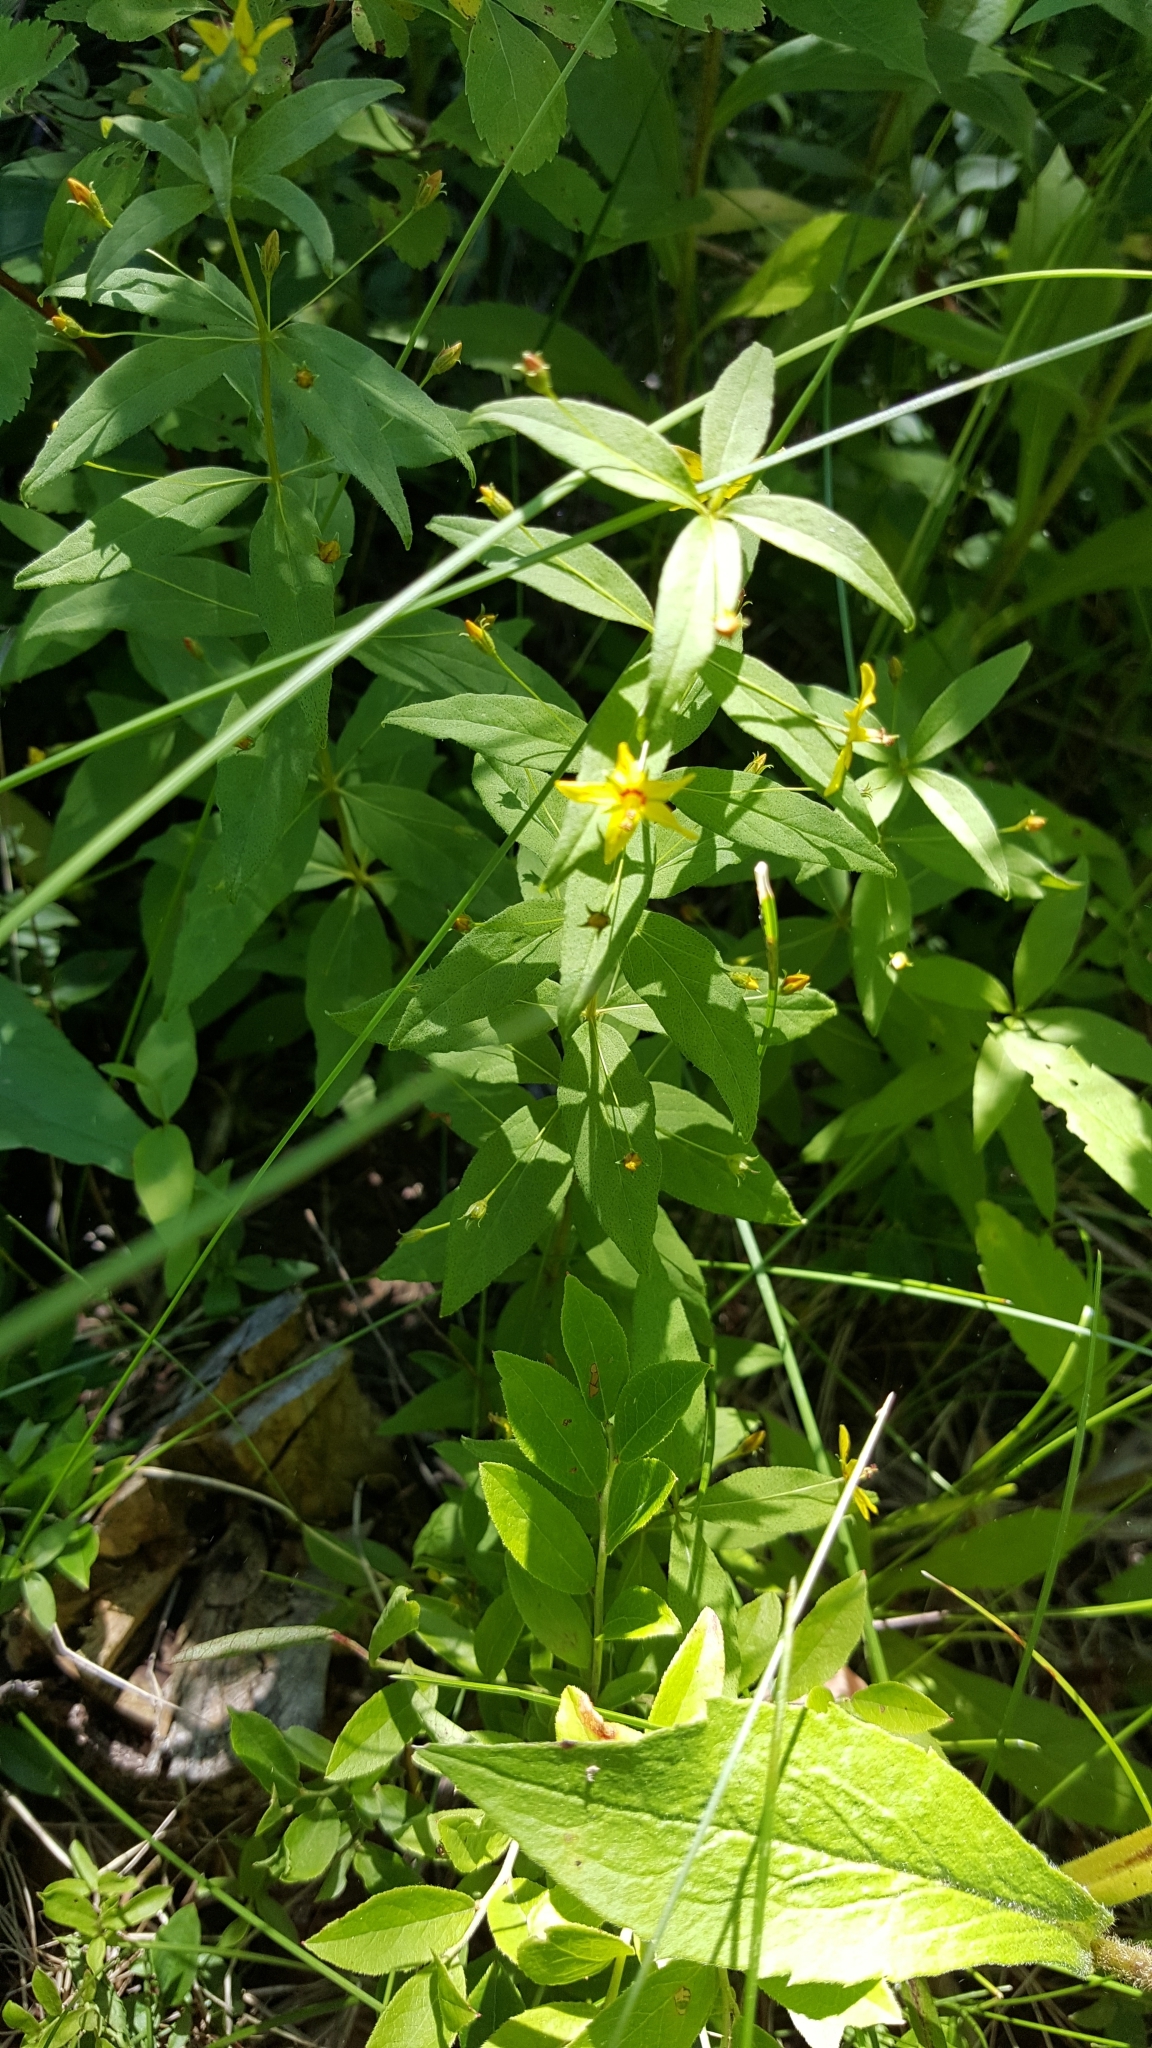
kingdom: Plantae
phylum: Tracheophyta
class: Magnoliopsida
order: Ericales
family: Primulaceae
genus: Lysimachia
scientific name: Lysimachia quadrifolia
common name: Whorled loosestrife
